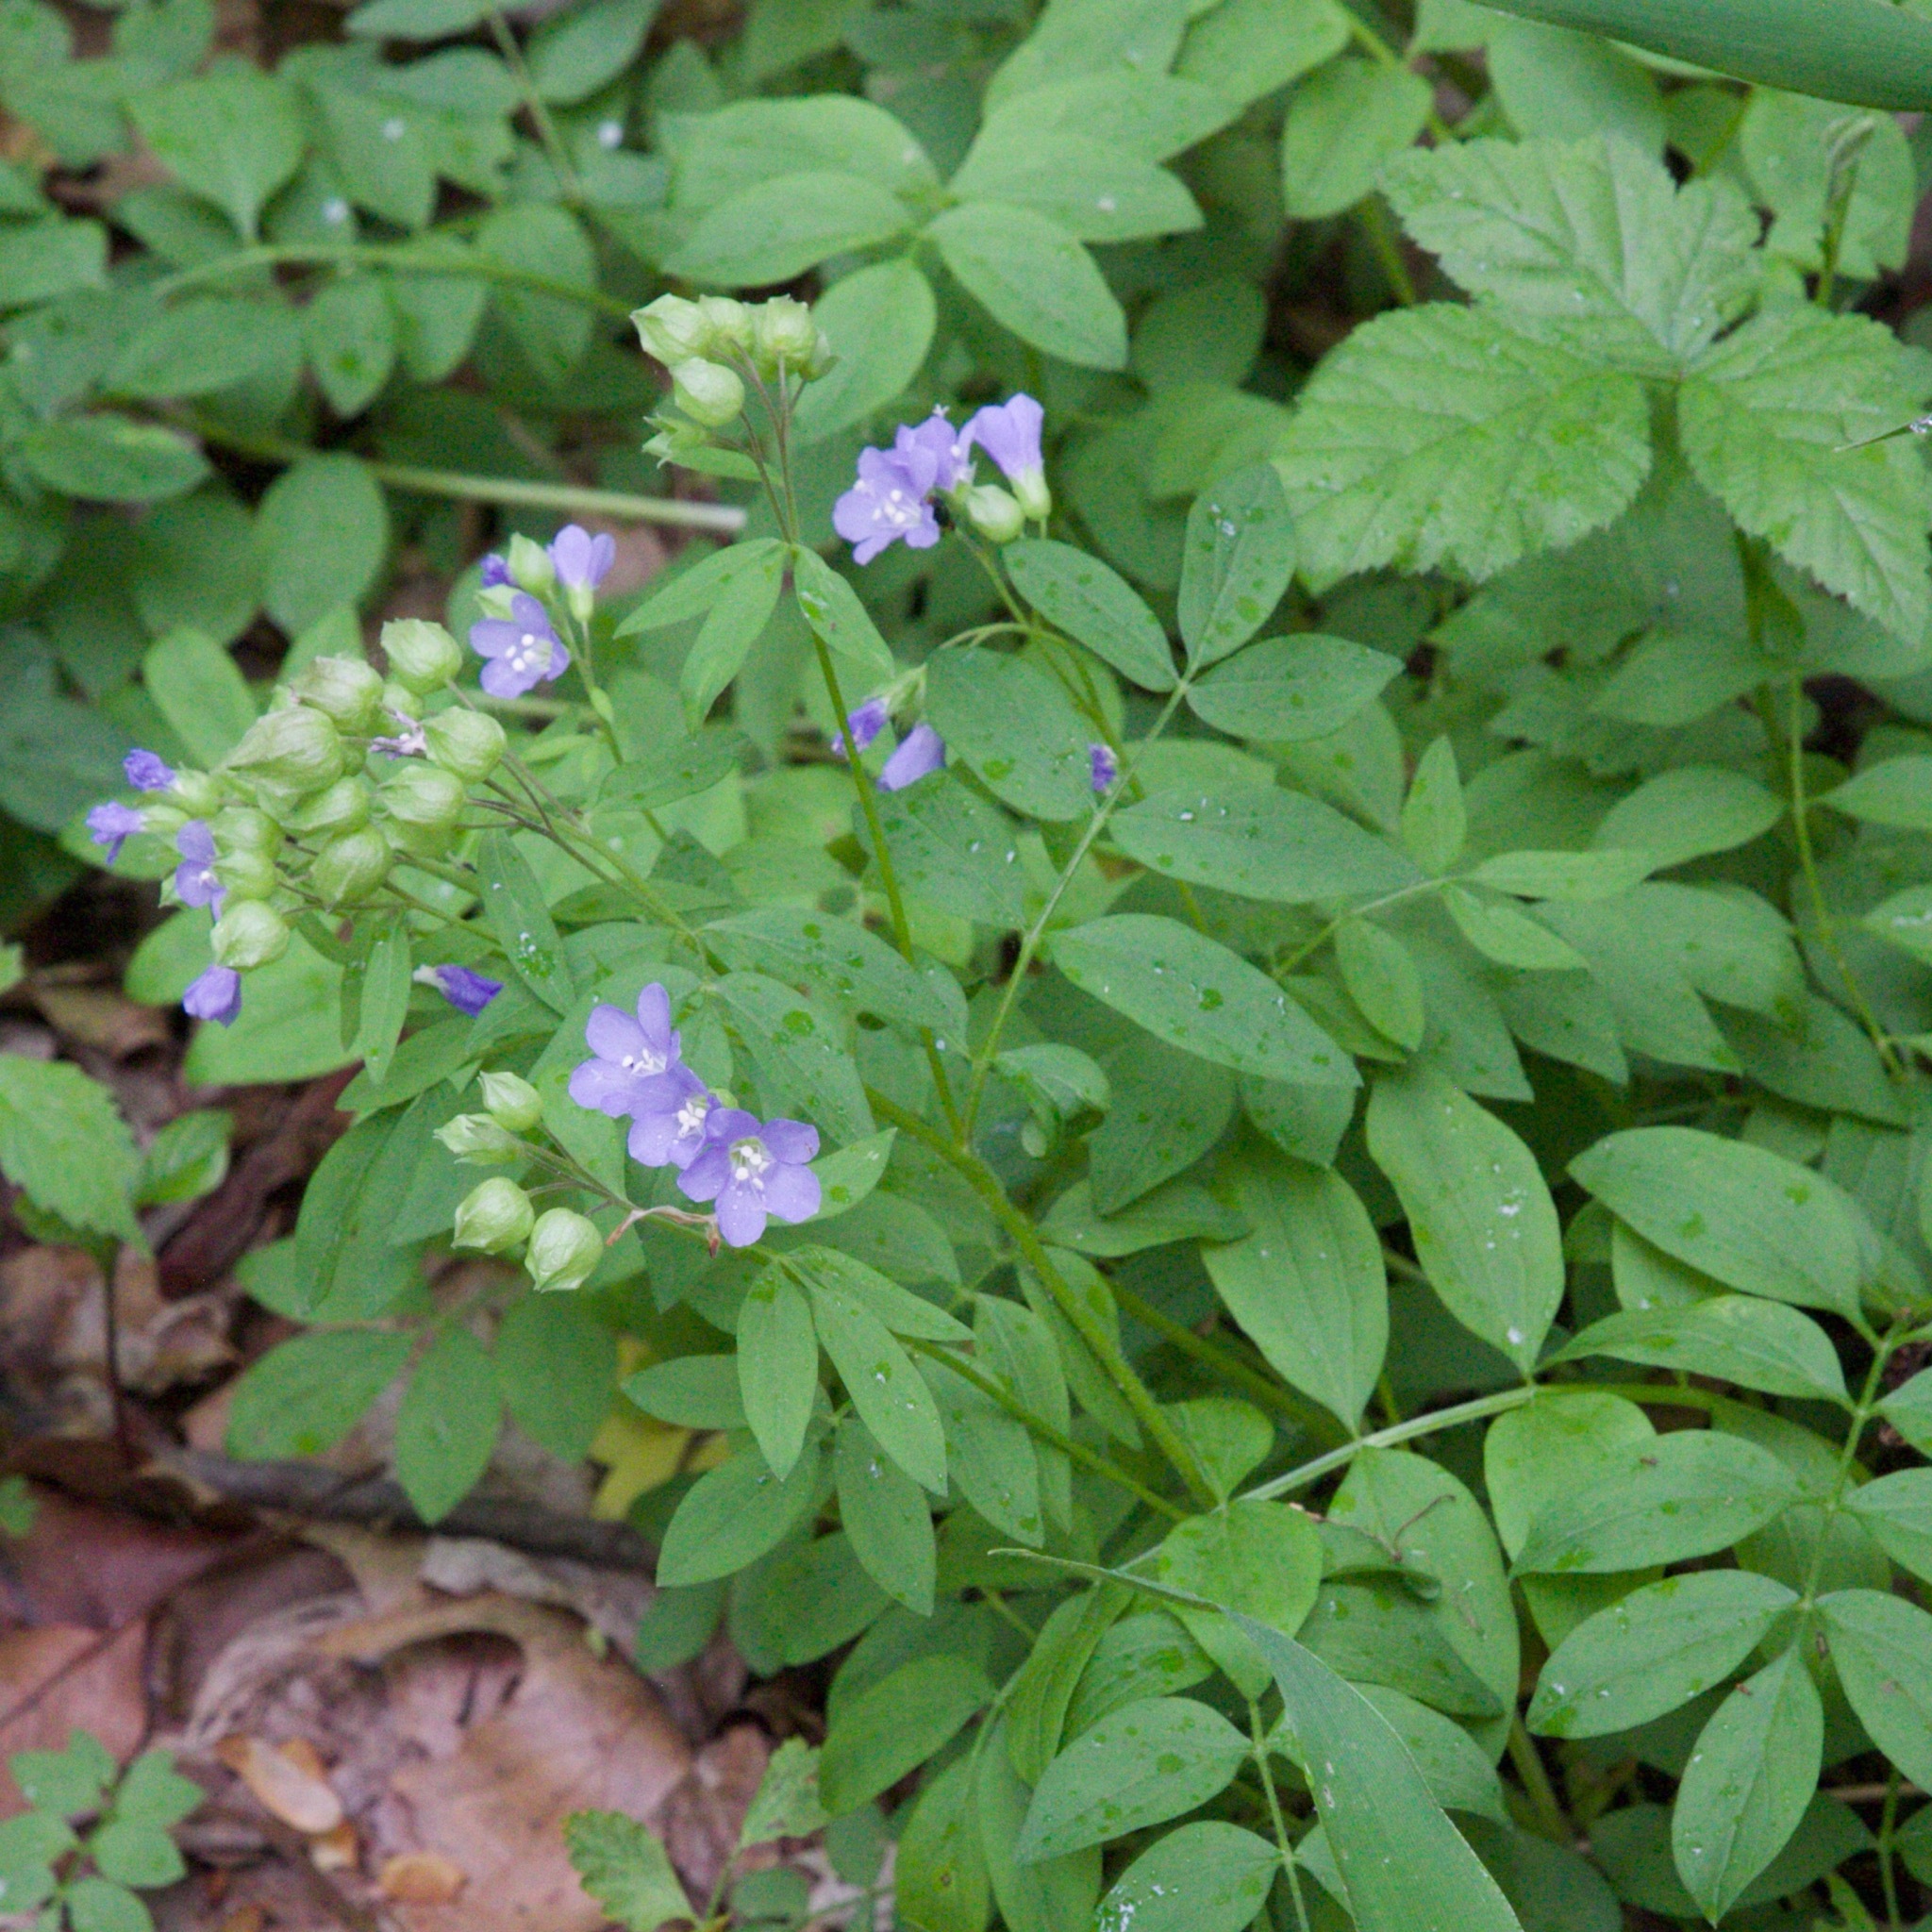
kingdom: Plantae
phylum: Tracheophyta
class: Magnoliopsida
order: Ericales
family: Polemoniaceae
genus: Polemonium
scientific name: Polemonium reptans
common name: Creeping jacob's-ladder
